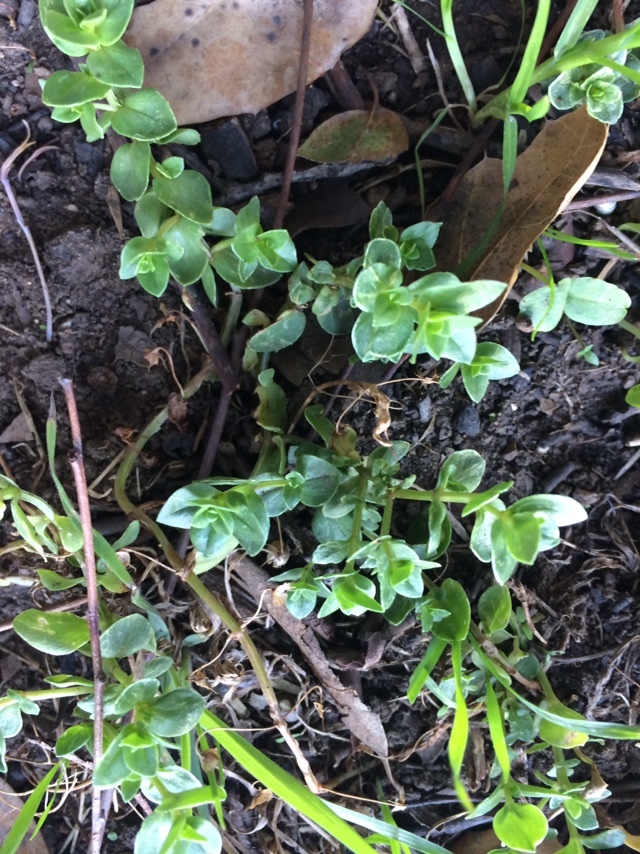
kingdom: Plantae
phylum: Tracheophyta
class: Magnoliopsida
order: Ericales
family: Primulaceae
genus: Lysimachia
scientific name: Lysimachia arvensis
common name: Scarlet pimpernel
